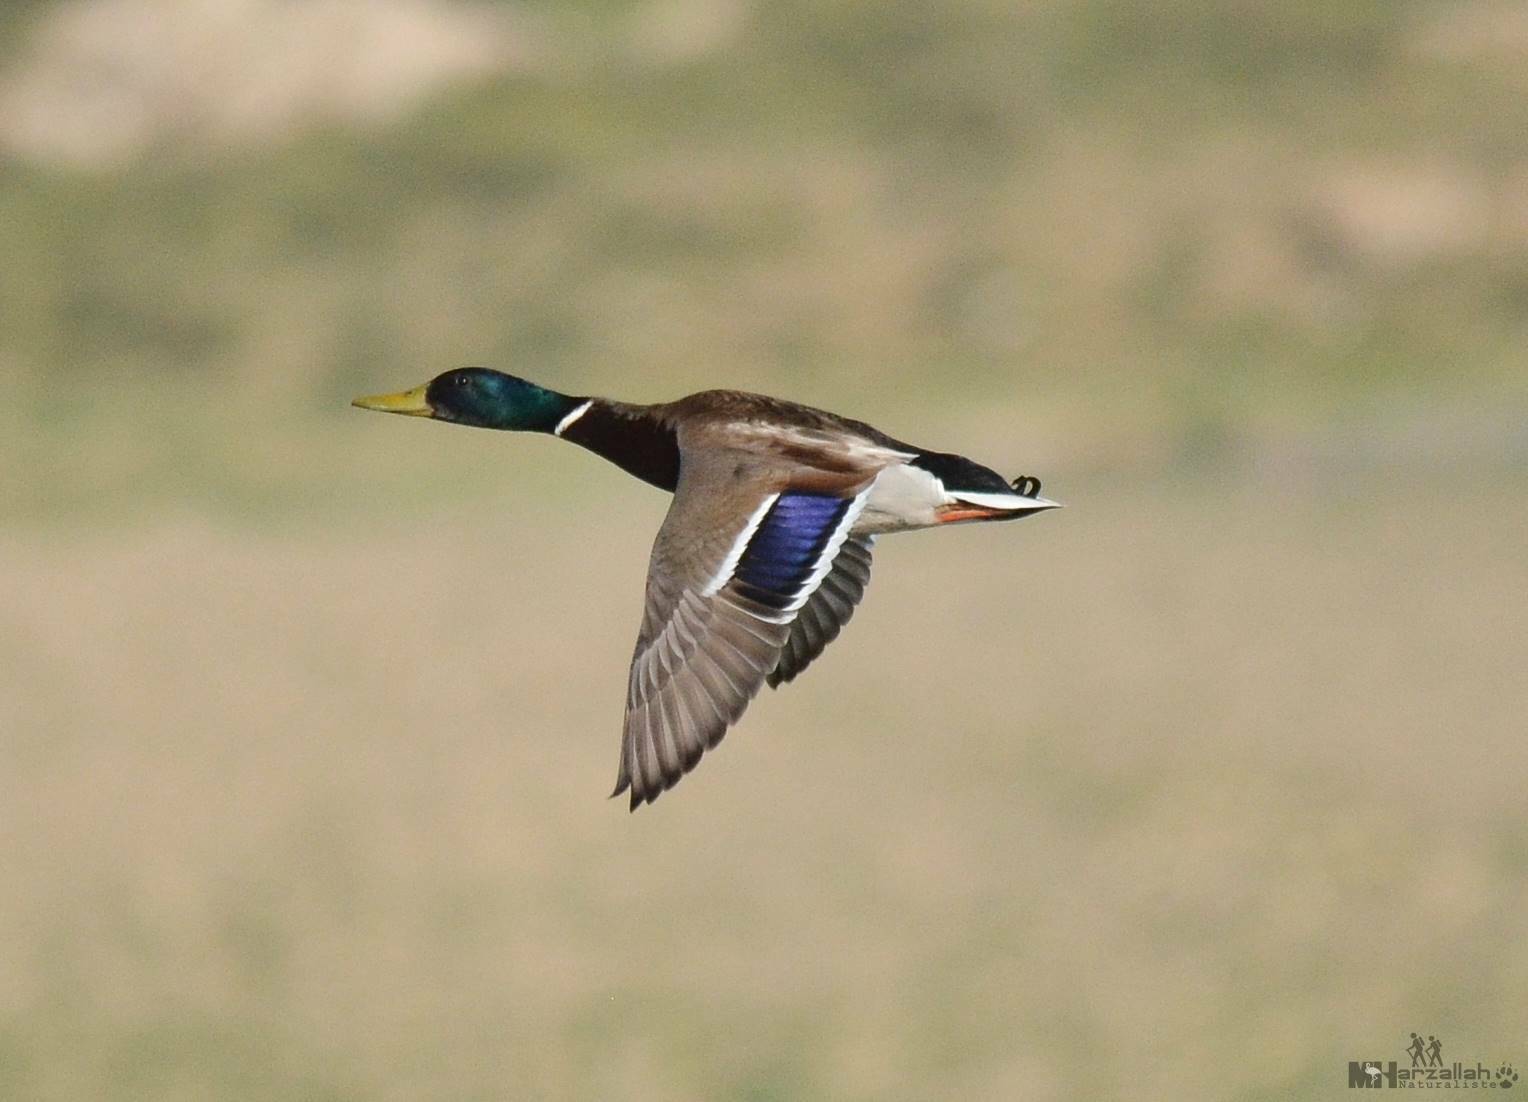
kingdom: Animalia
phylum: Chordata
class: Aves
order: Anseriformes
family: Anatidae
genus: Anas
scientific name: Anas platyrhynchos
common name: Mallard
